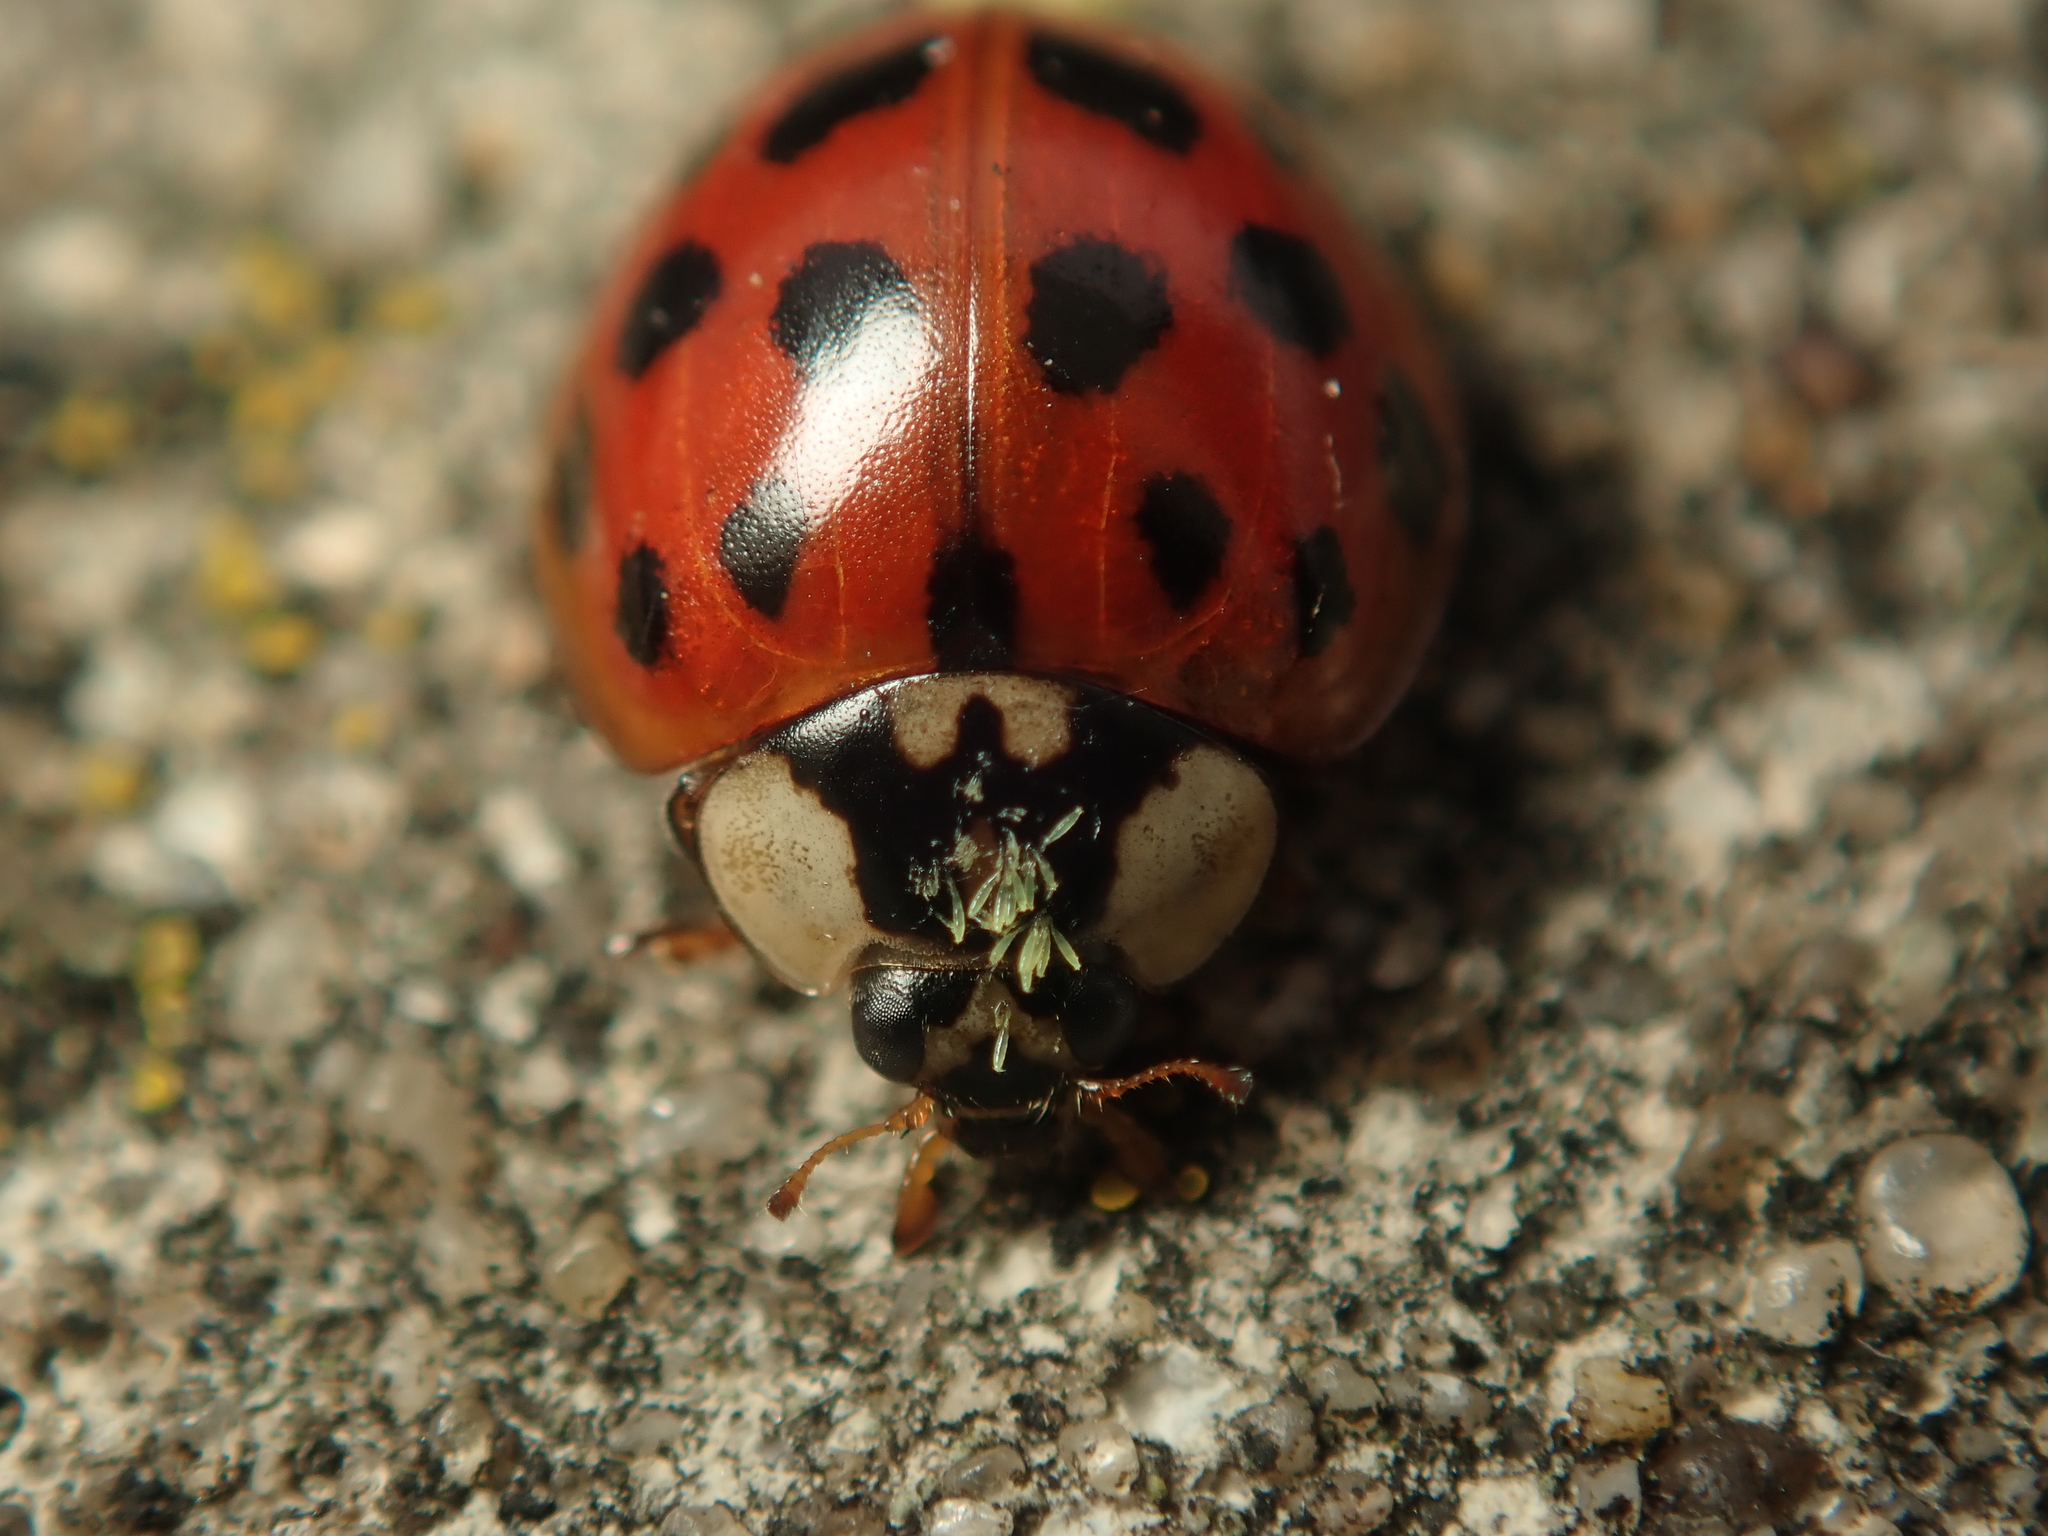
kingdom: Animalia
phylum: Arthropoda
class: Insecta
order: Coleoptera
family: Coccinellidae
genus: Harmonia
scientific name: Harmonia axyridis
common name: Harlequin ladybird
